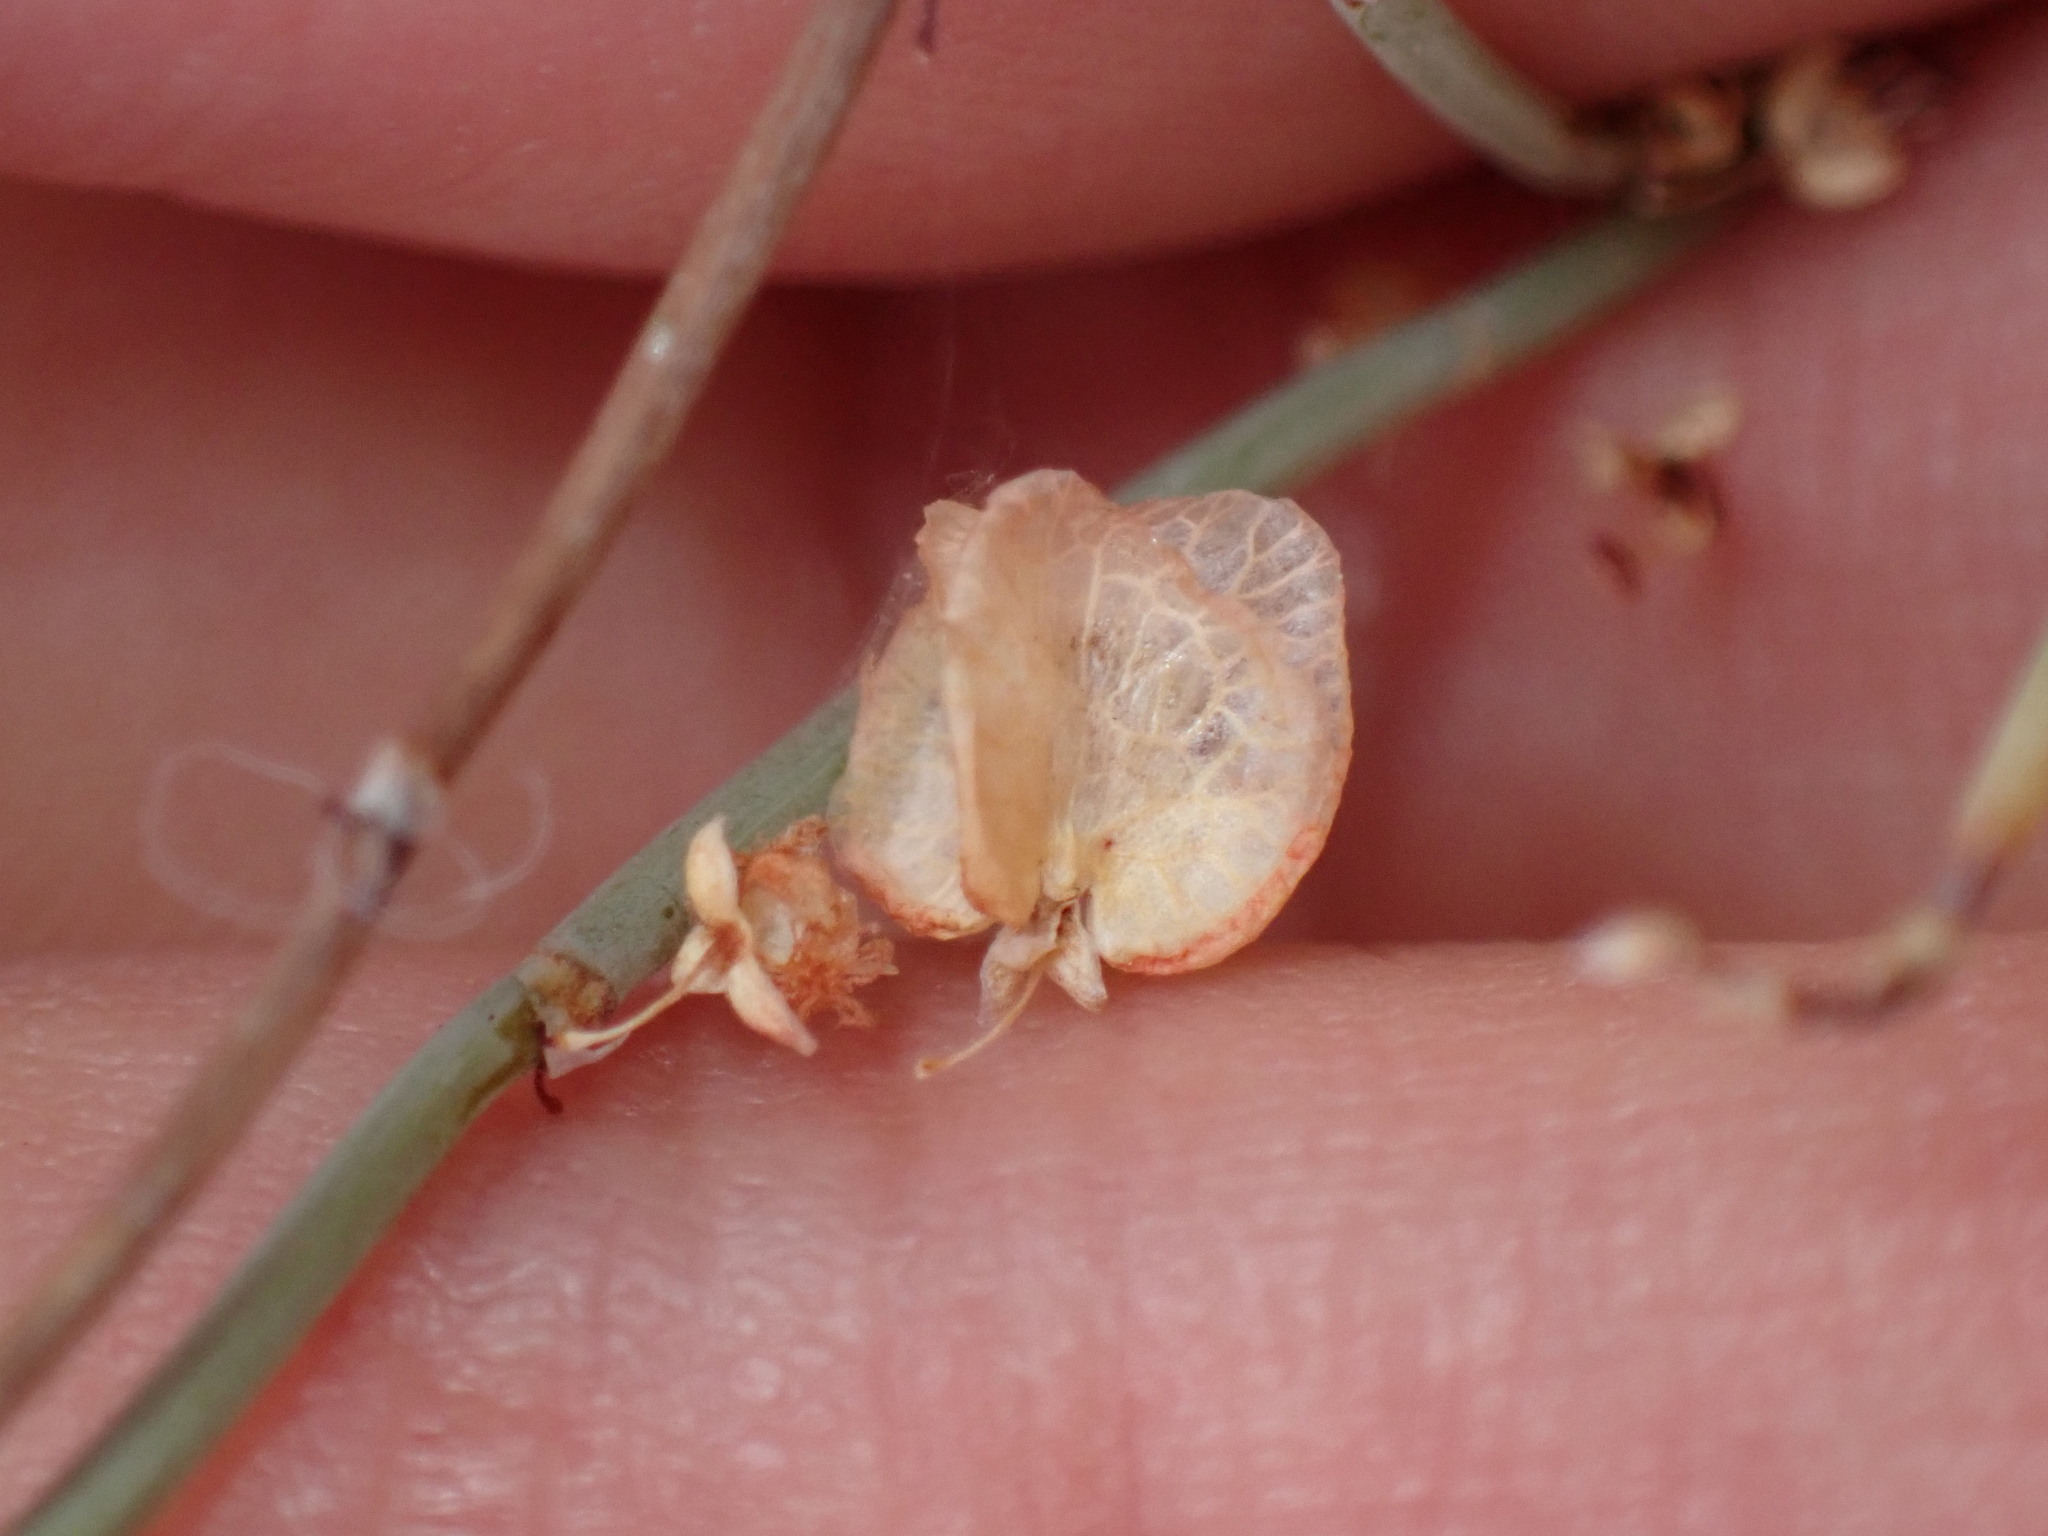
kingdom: Plantae
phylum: Tracheophyta
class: Magnoliopsida
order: Caryophyllales
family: Polygonaceae
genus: Rumex
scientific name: Rumex induratus
